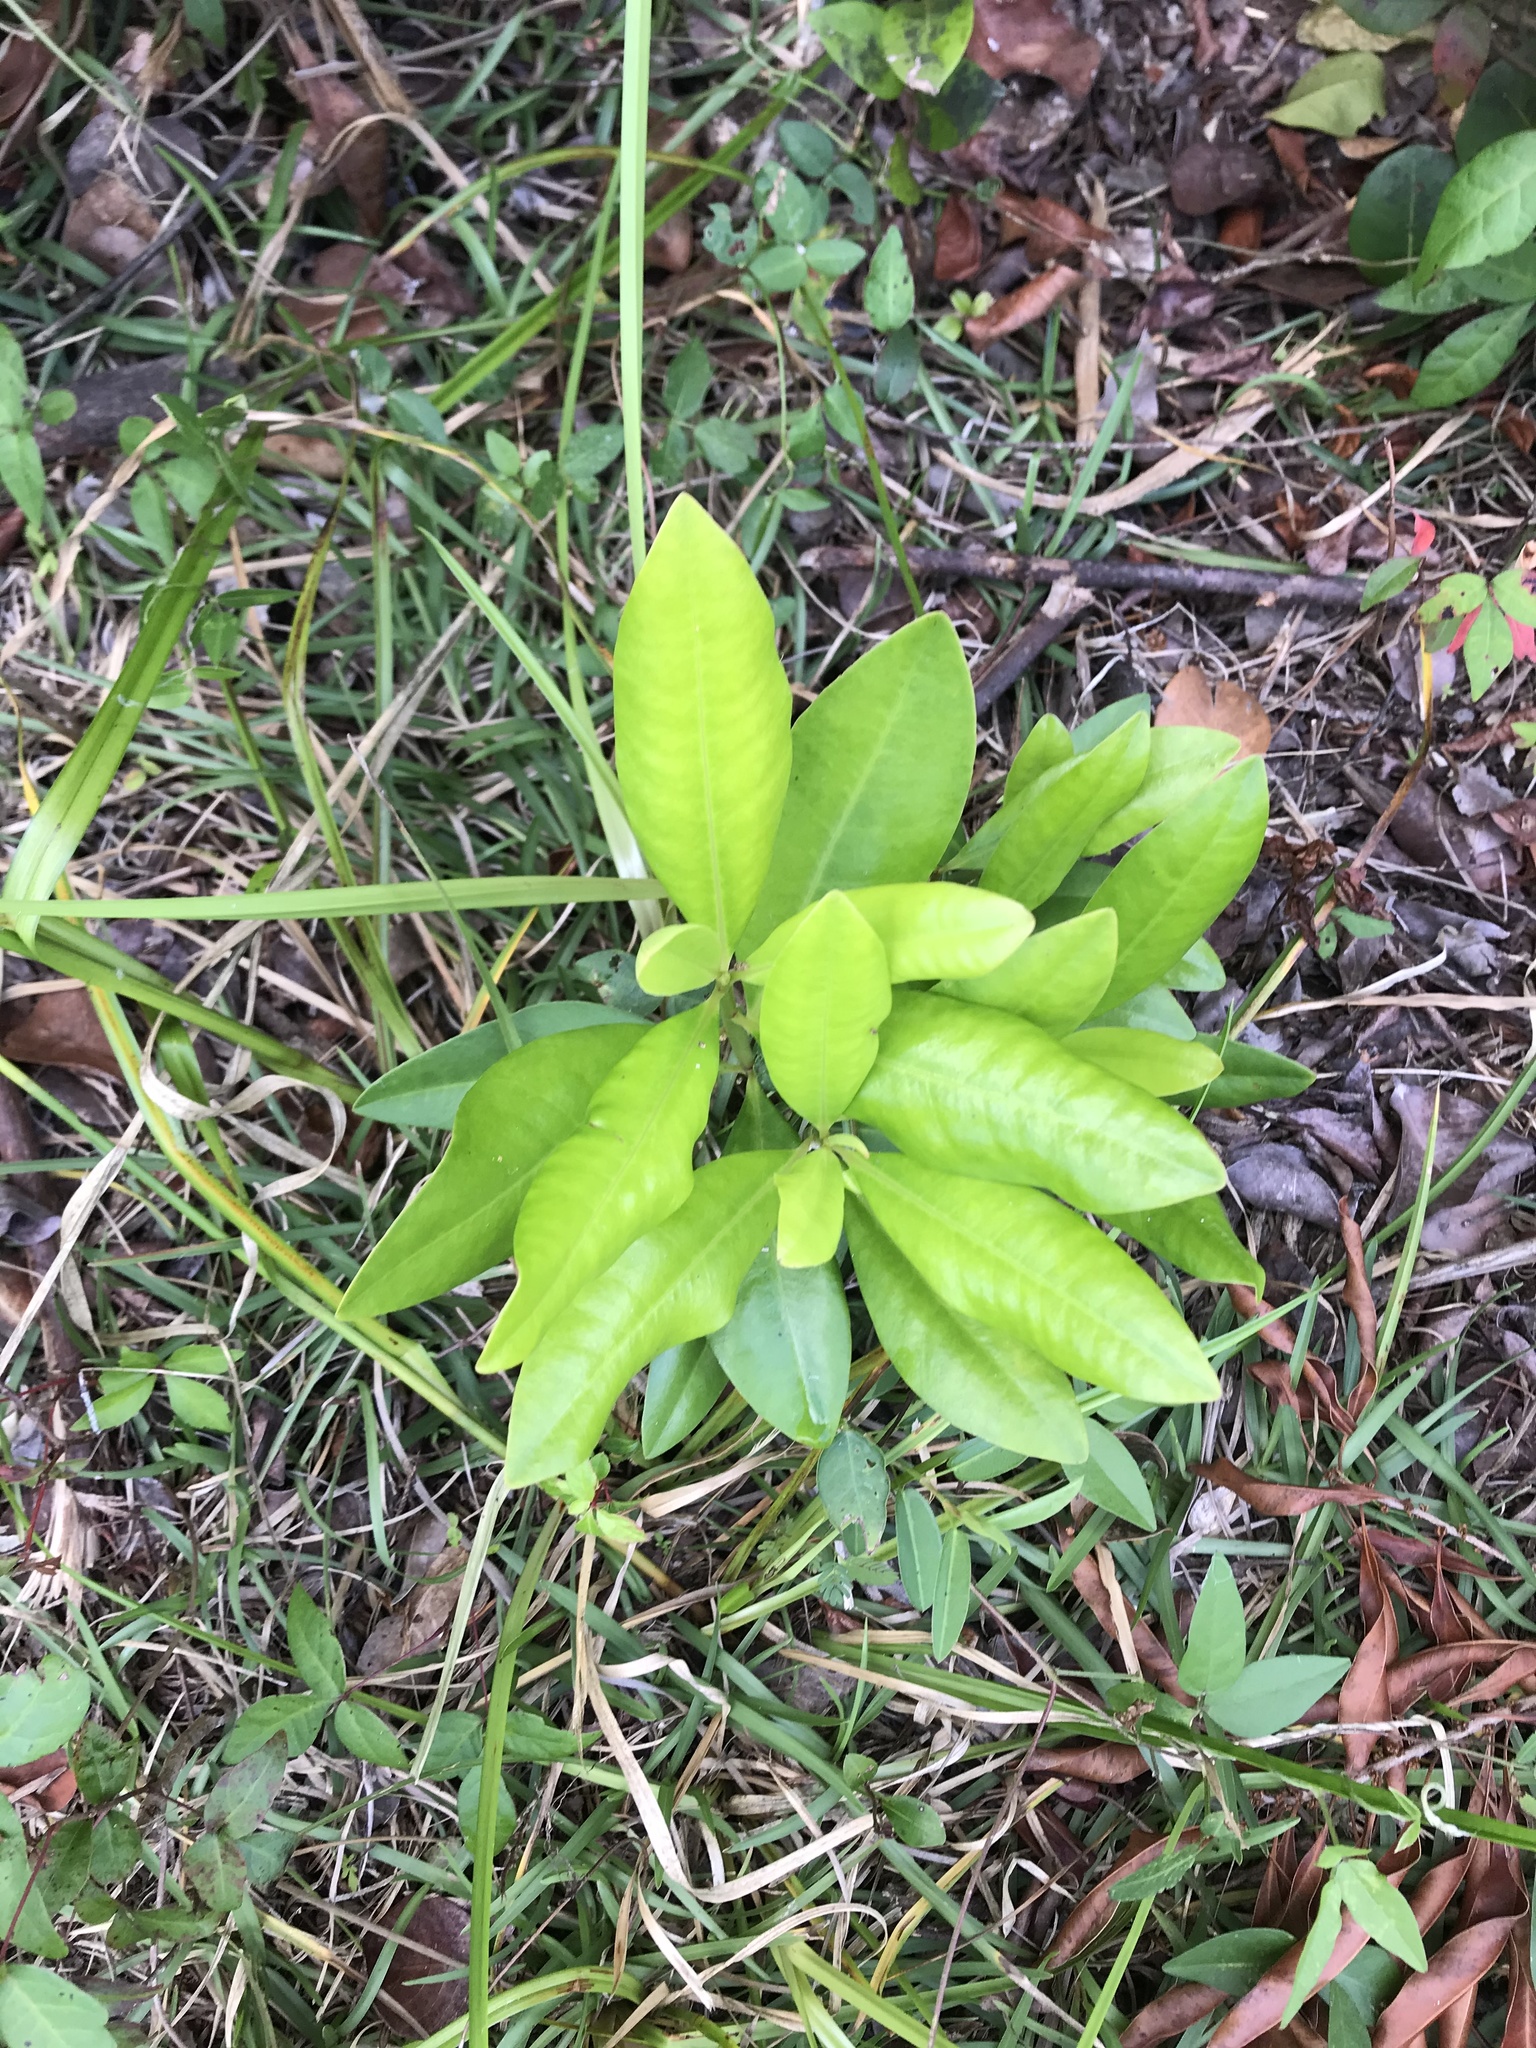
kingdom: Plantae
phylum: Tracheophyta
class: Magnoliopsida
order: Ericales
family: Primulaceae
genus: Myrsine
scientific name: Myrsine floridana
